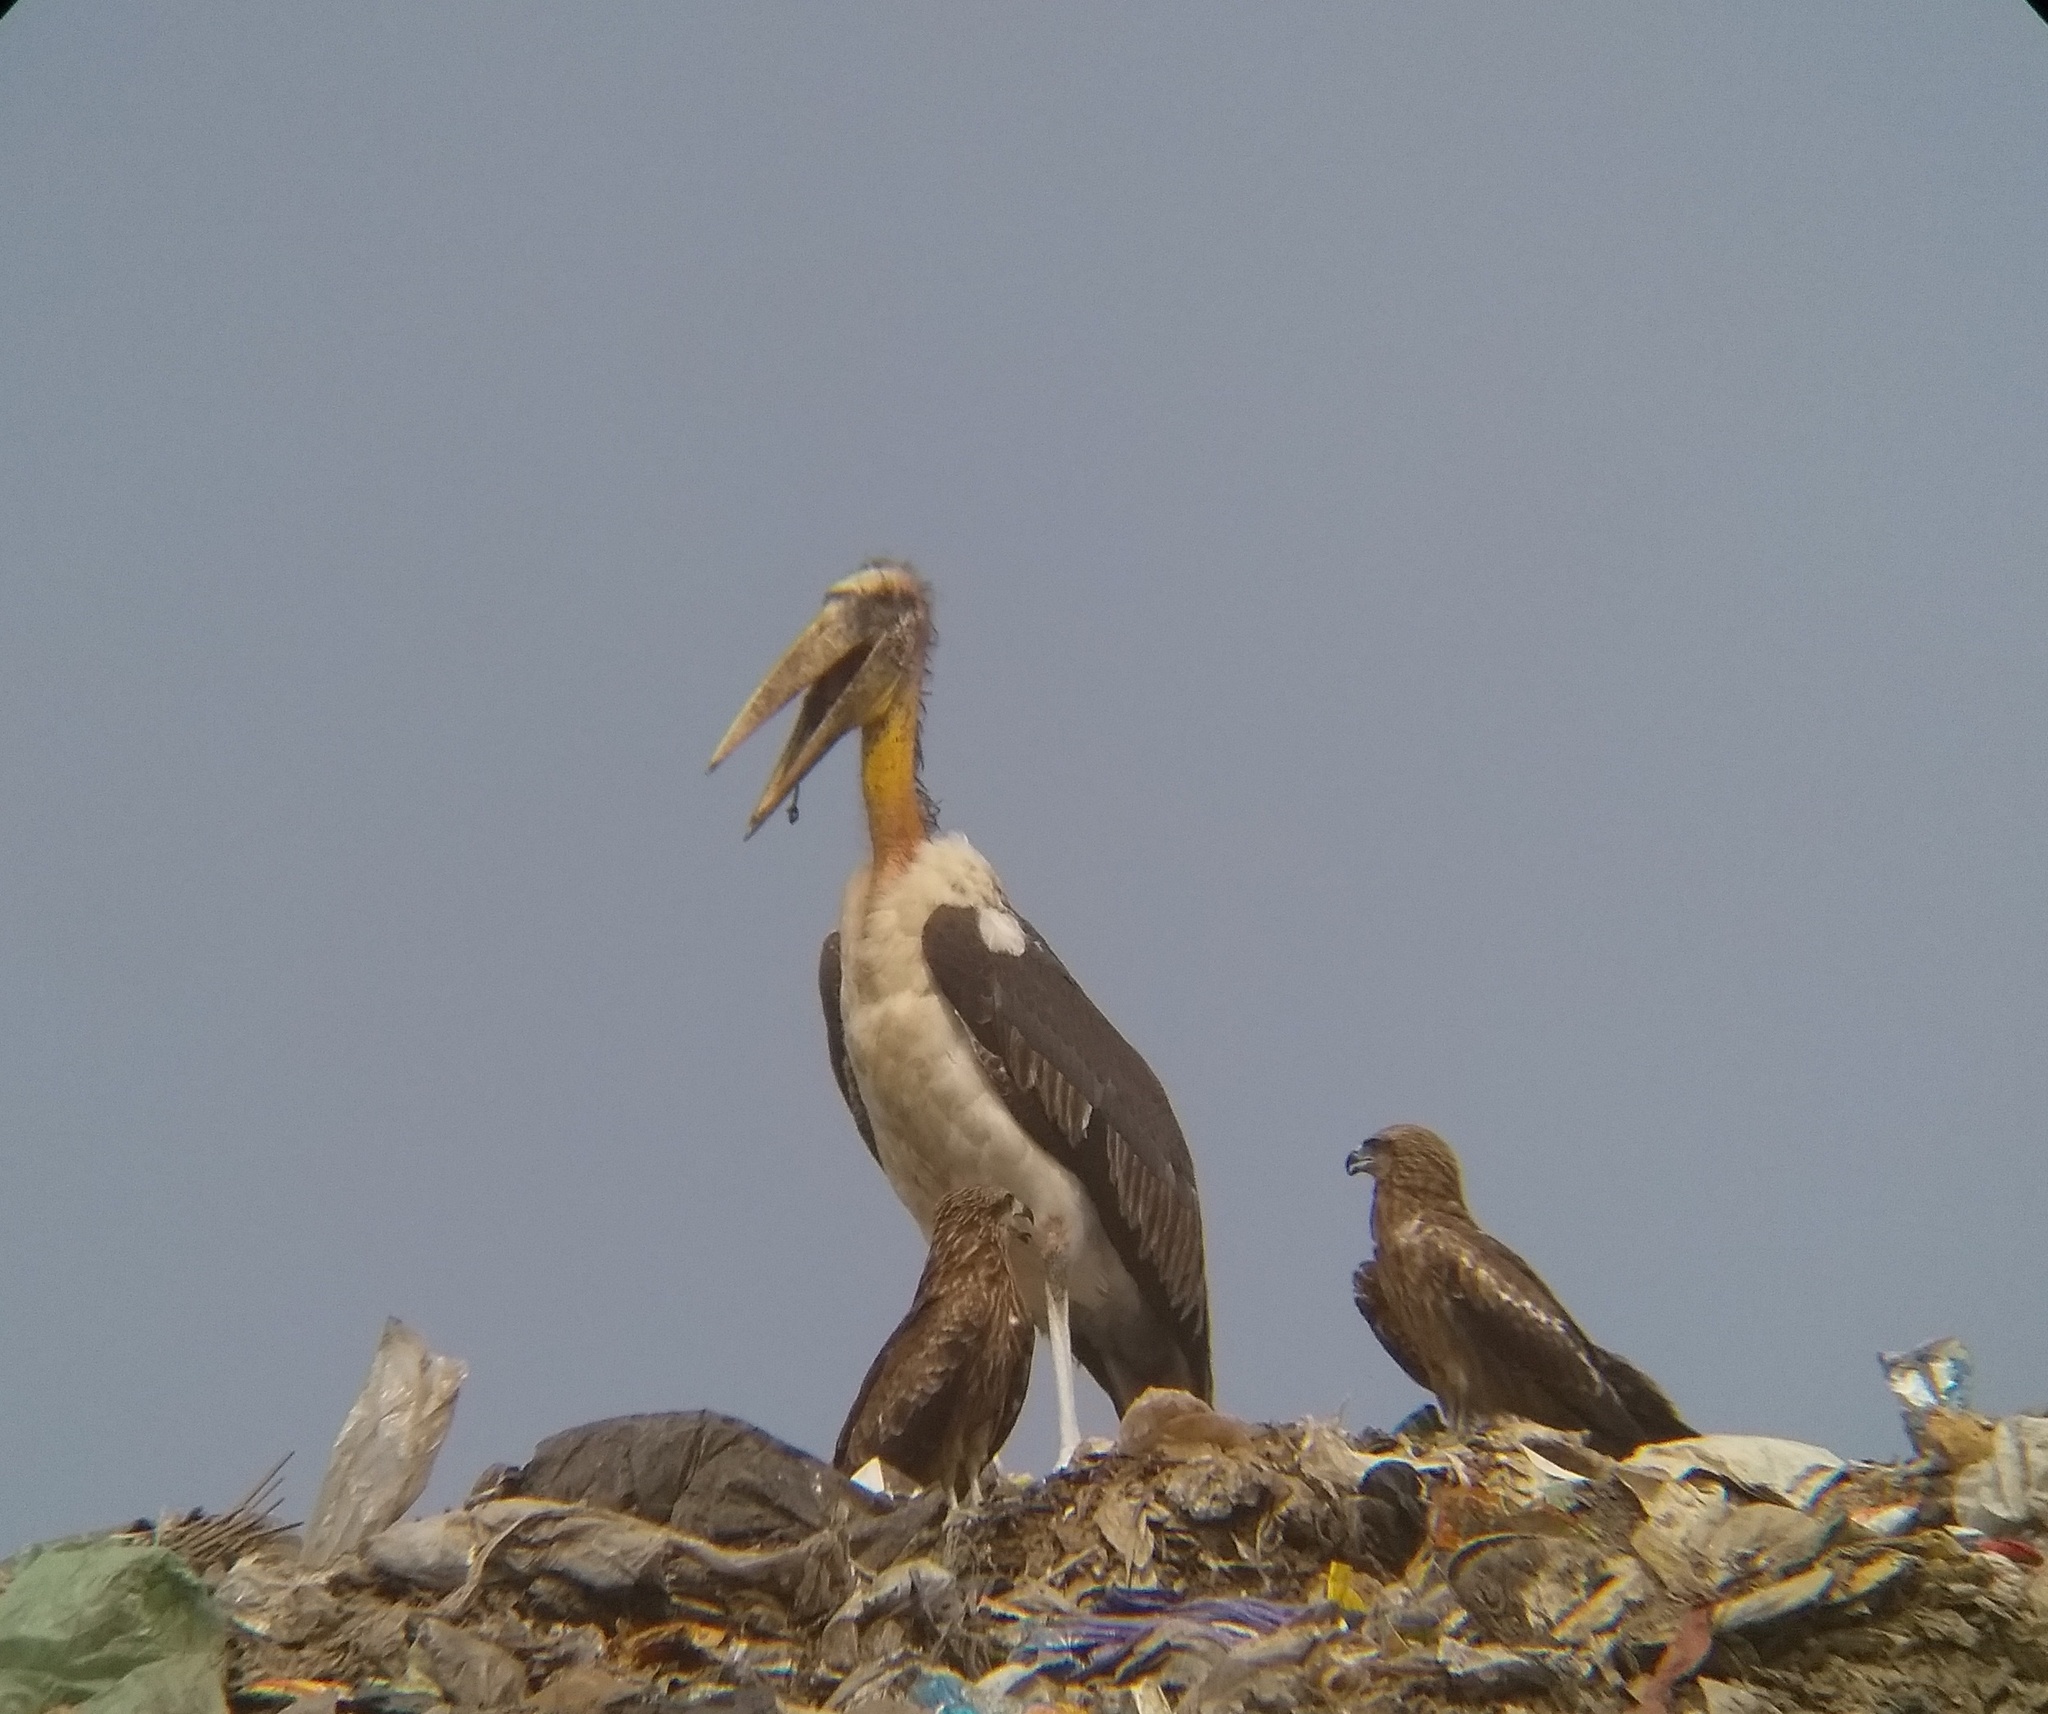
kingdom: Animalia
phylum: Chordata
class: Aves
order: Ciconiiformes
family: Ciconiidae
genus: Leptoptilos
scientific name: Leptoptilos javanicus
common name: Lesser adjutant
